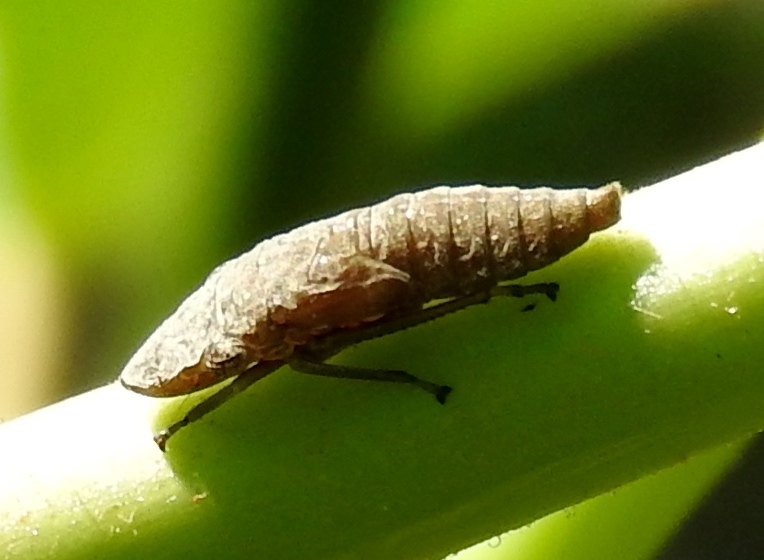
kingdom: Animalia
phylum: Arthropoda
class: Insecta
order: Hemiptera
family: Cicadellidae
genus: Homalodisca
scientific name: Homalodisca
